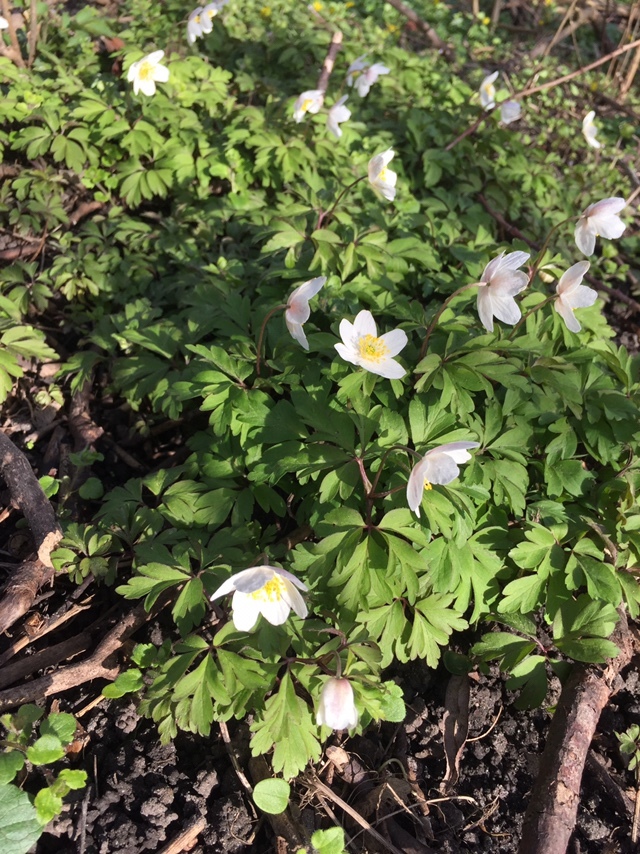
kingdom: Plantae
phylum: Tracheophyta
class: Magnoliopsida
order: Ranunculales
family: Ranunculaceae
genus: Anemone
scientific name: Anemone nemorosa
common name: Wood anemone
